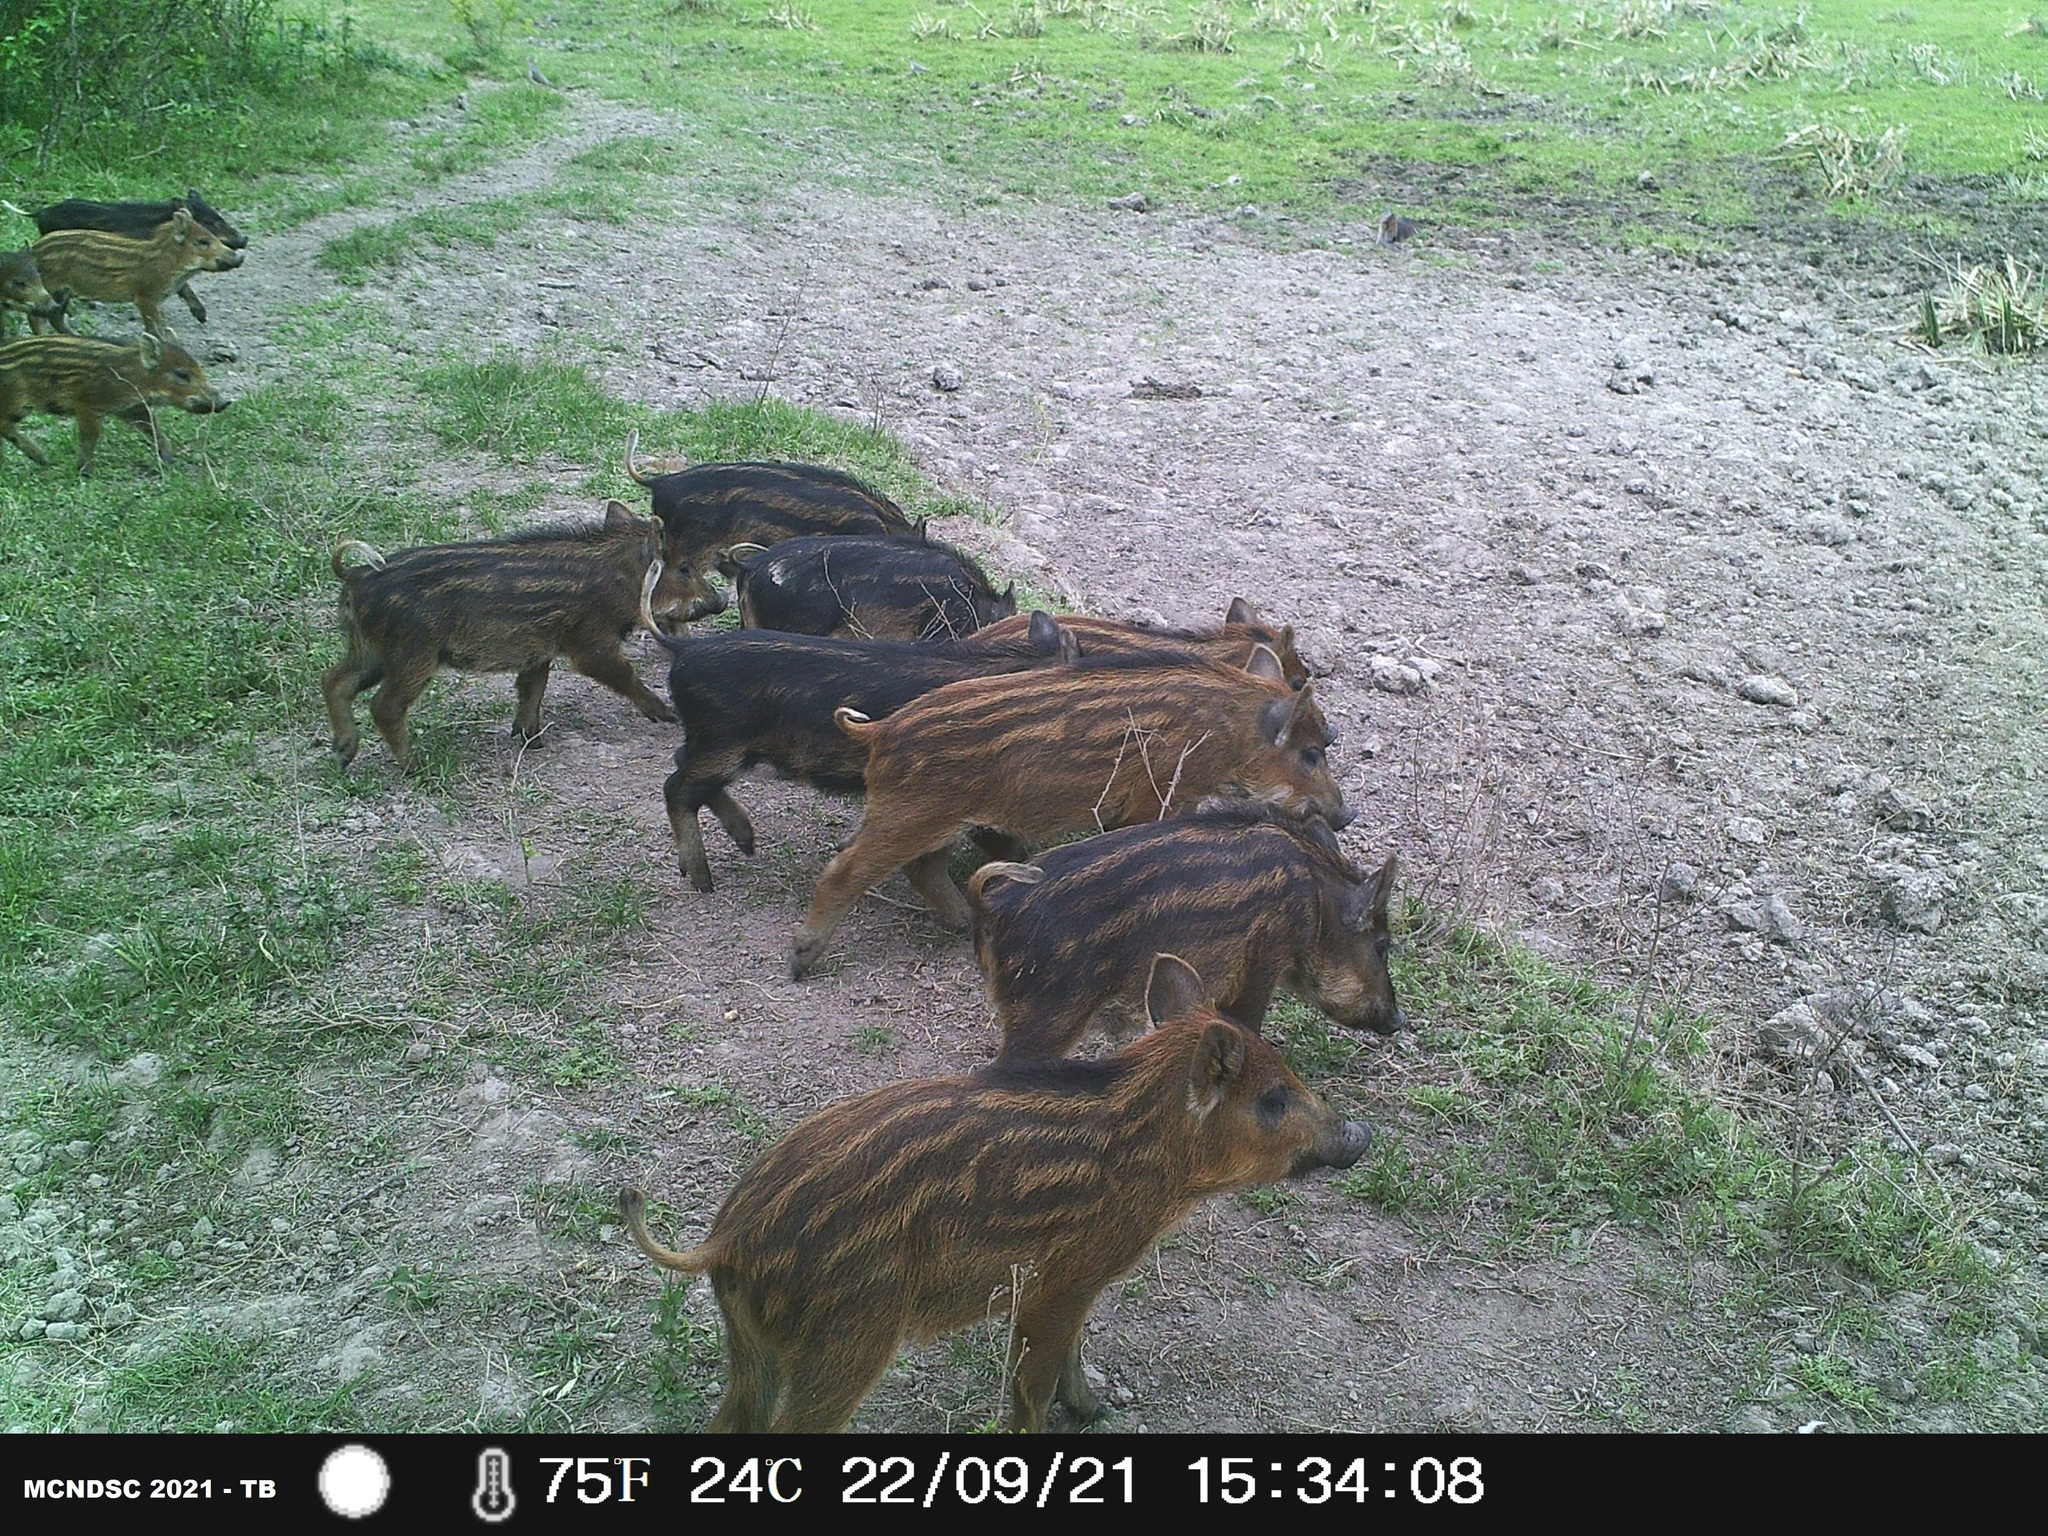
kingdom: Animalia
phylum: Chordata
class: Mammalia
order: Artiodactyla
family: Suidae
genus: Sus
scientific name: Sus scrofa
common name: Wild boar
